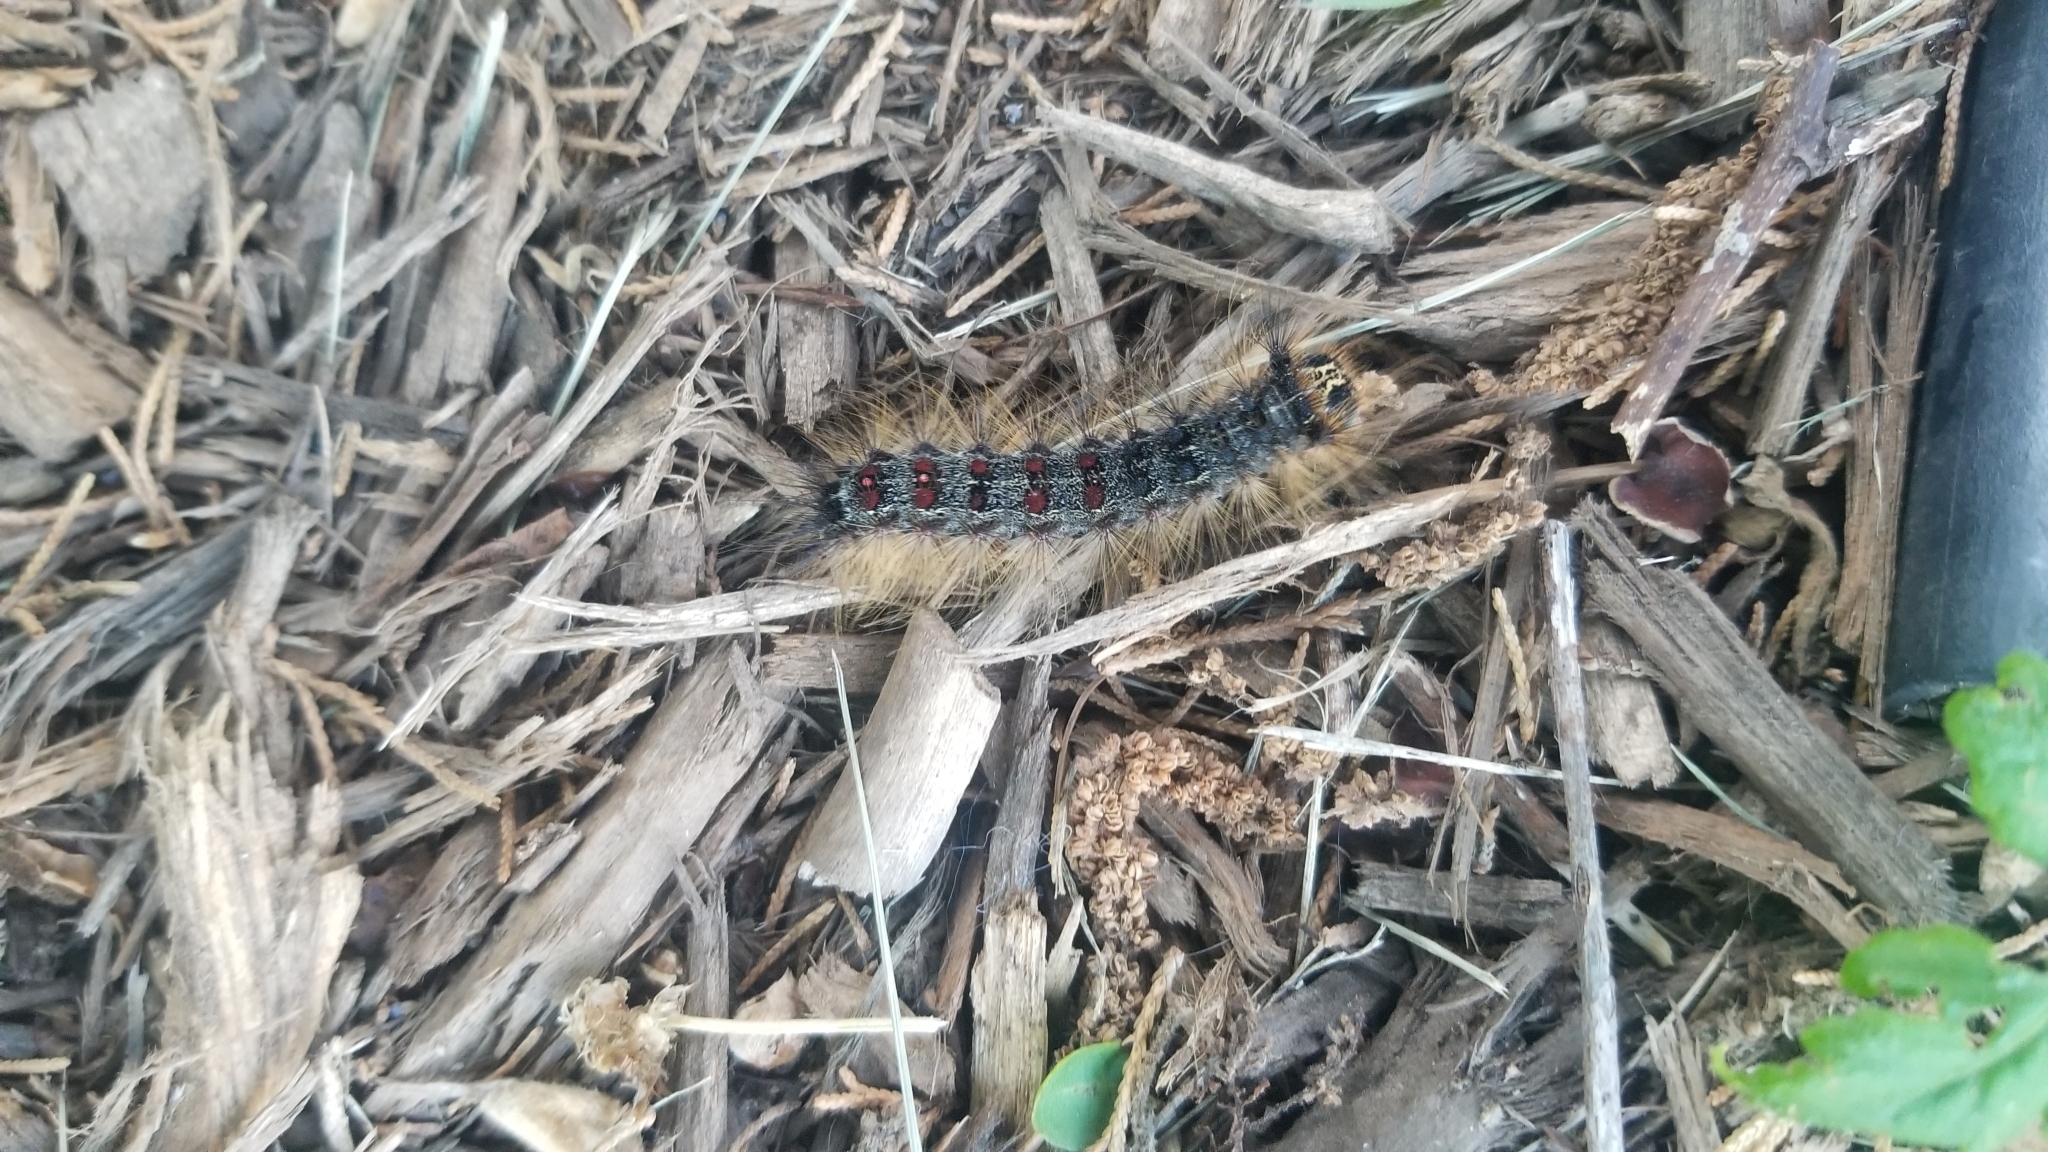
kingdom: Animalia
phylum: Arthropoda
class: Insecta
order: Lepidoptera
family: Erebidae
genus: Lymantria
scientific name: Lymantria dispar
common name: Gypsy moth
